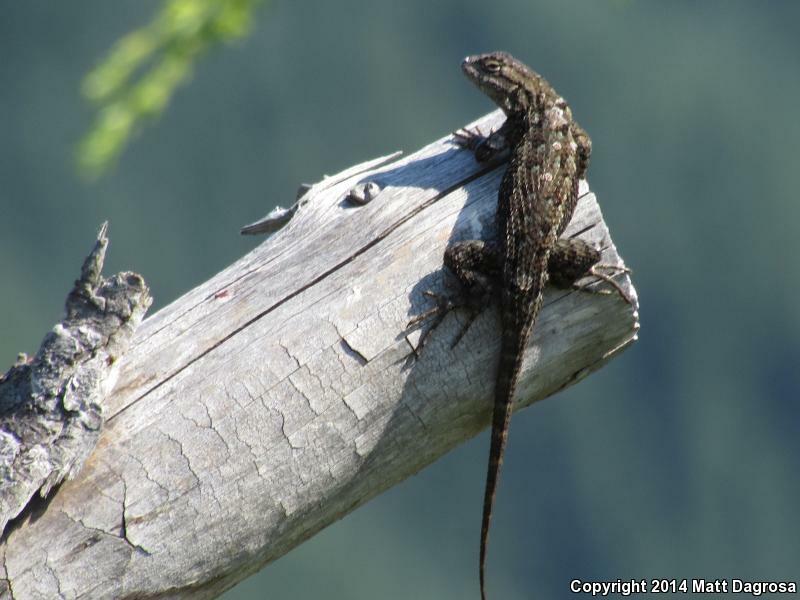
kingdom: Animalia
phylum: Chordata
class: Squamata
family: Phrynosomatidae
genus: Sceloporus
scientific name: Sceloporus occidentalis
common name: Western fence lizard
